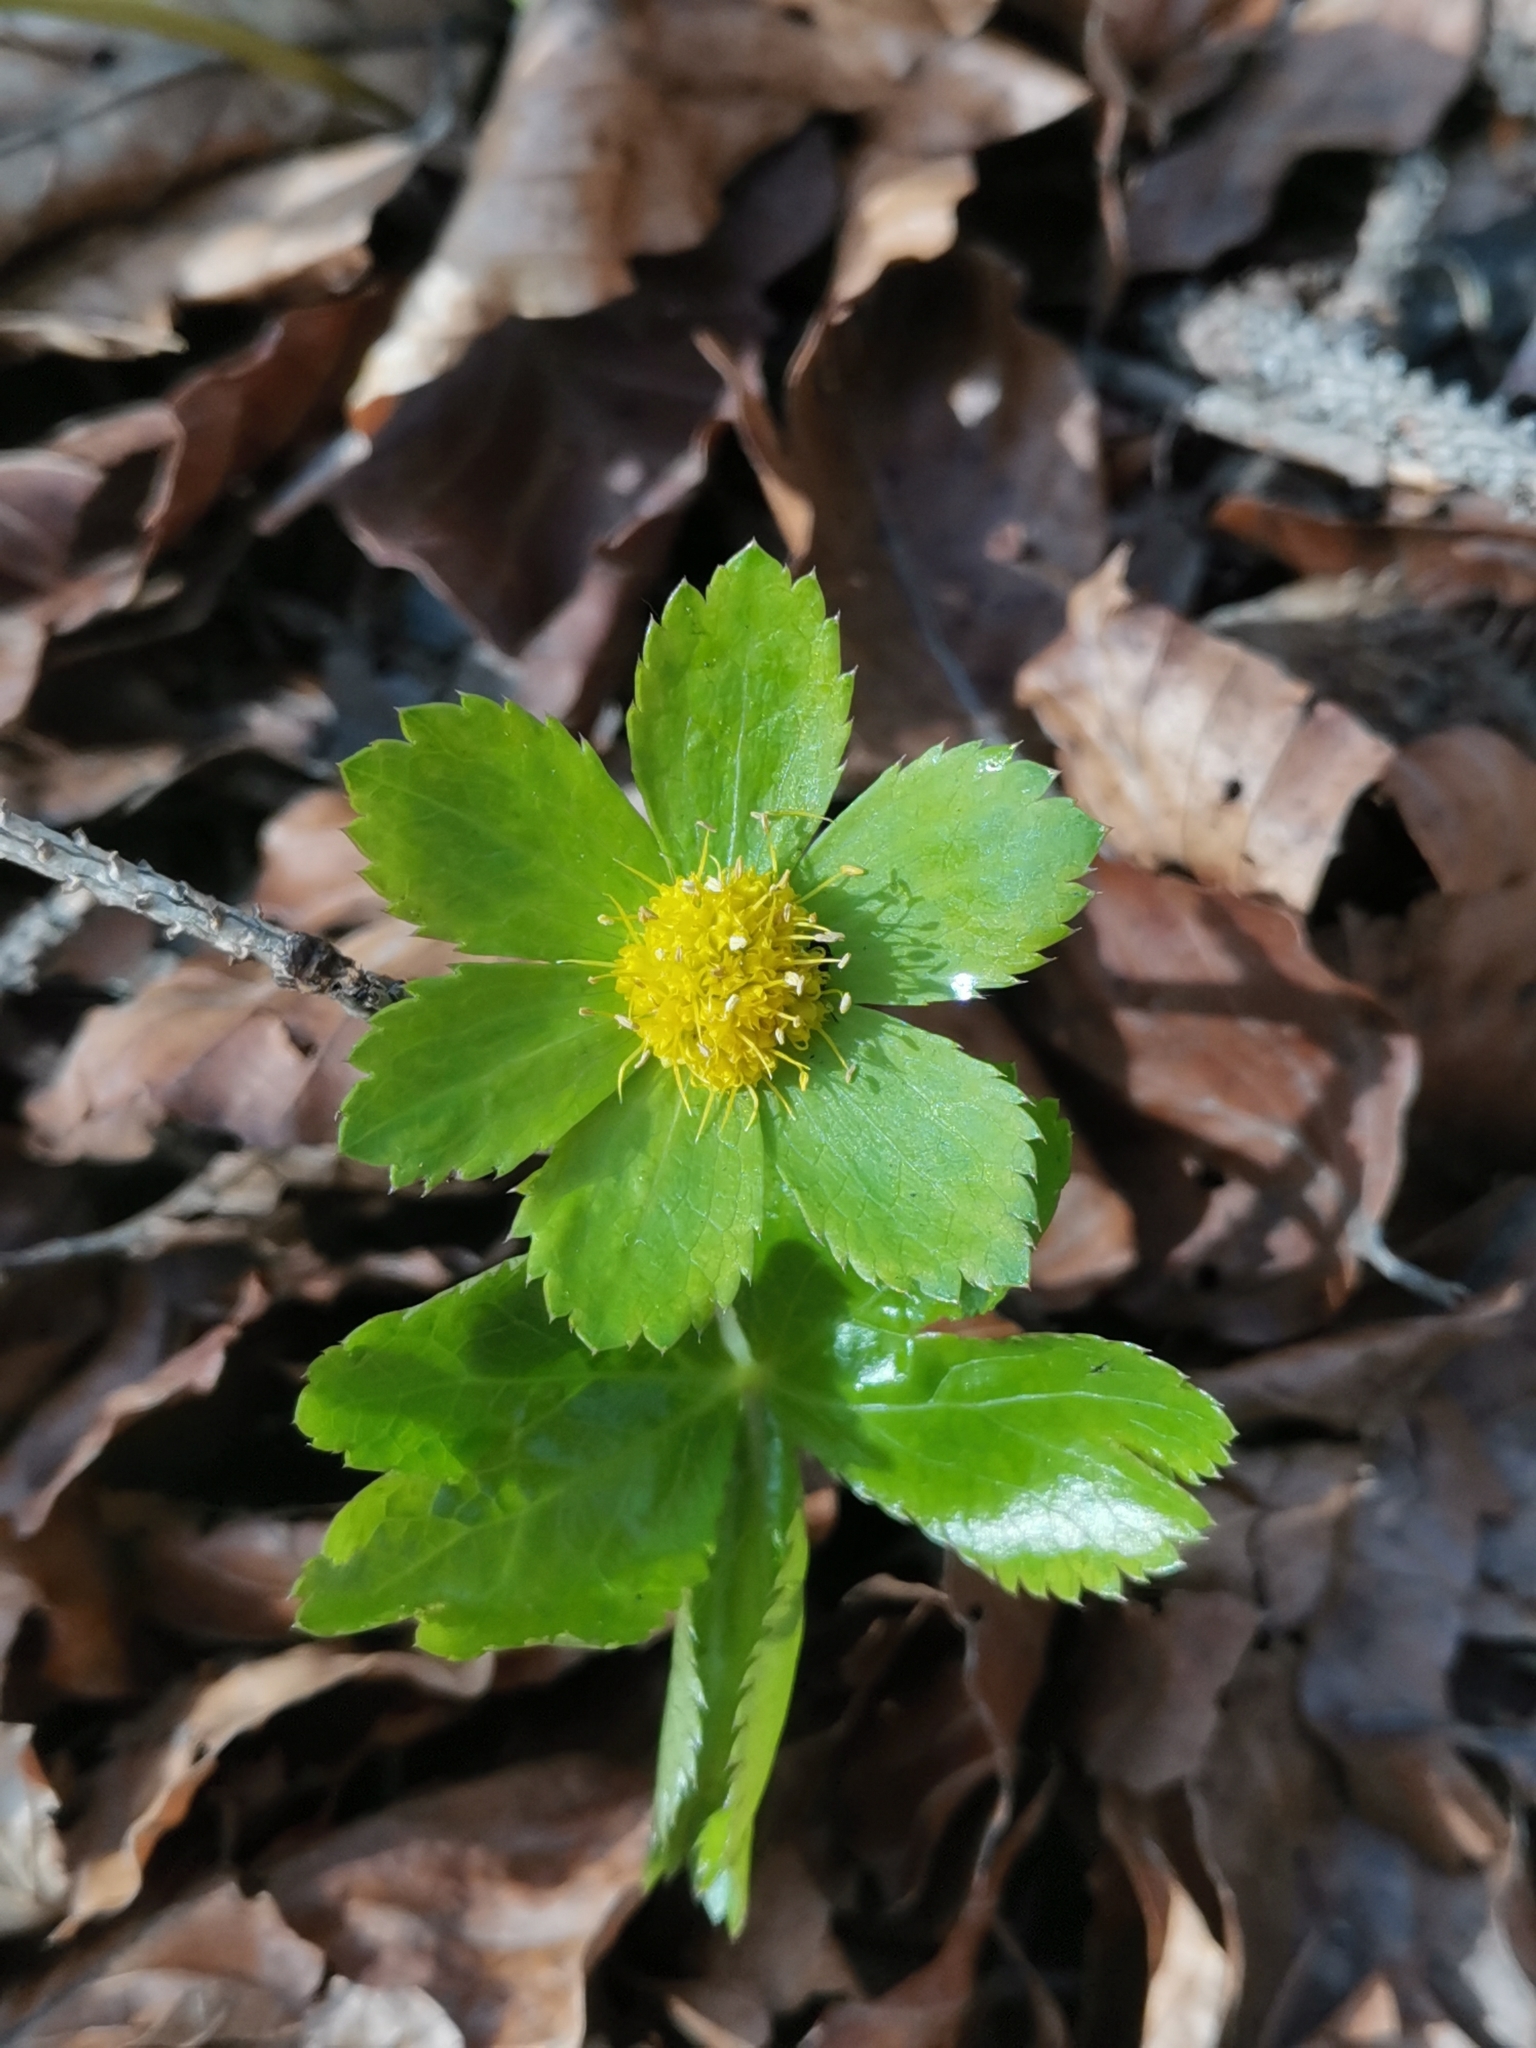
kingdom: Plantae
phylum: Tracheophyta
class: Magnoliopsida
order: Apiales
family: Apiaceae
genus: Sanicula
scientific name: Sanicula epipactis
